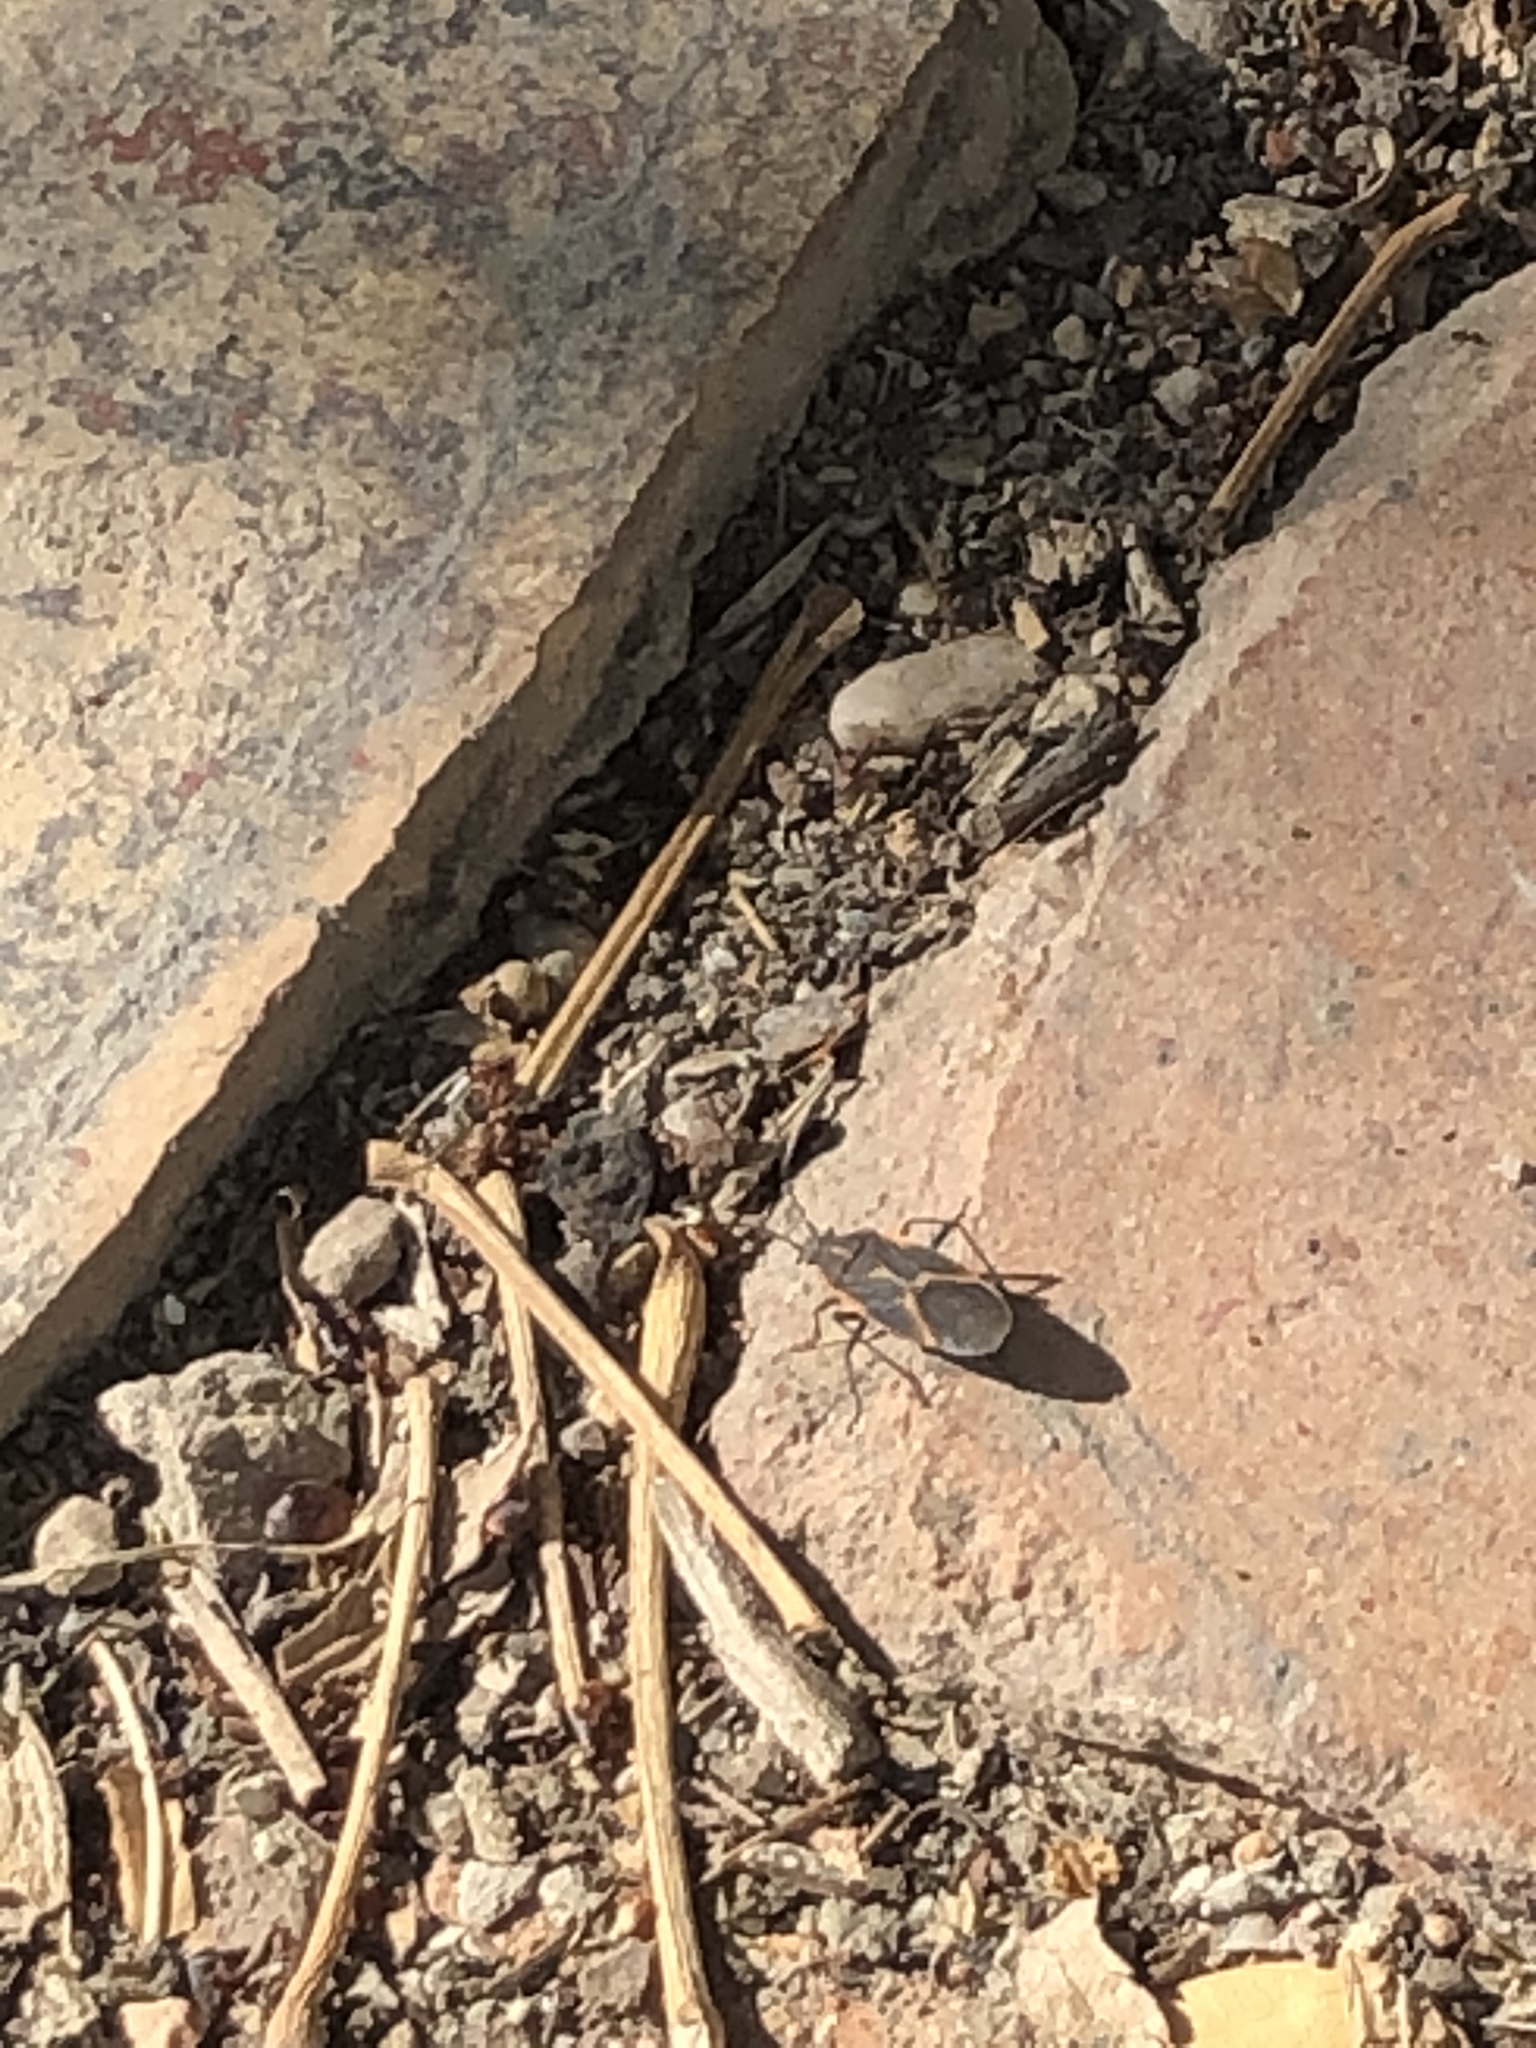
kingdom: Animalia
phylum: Arthropoda
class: Insecta
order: Hemiptera
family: Rhopalidae
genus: Boisea
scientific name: Boisea trivittata
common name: Boxelder bug
